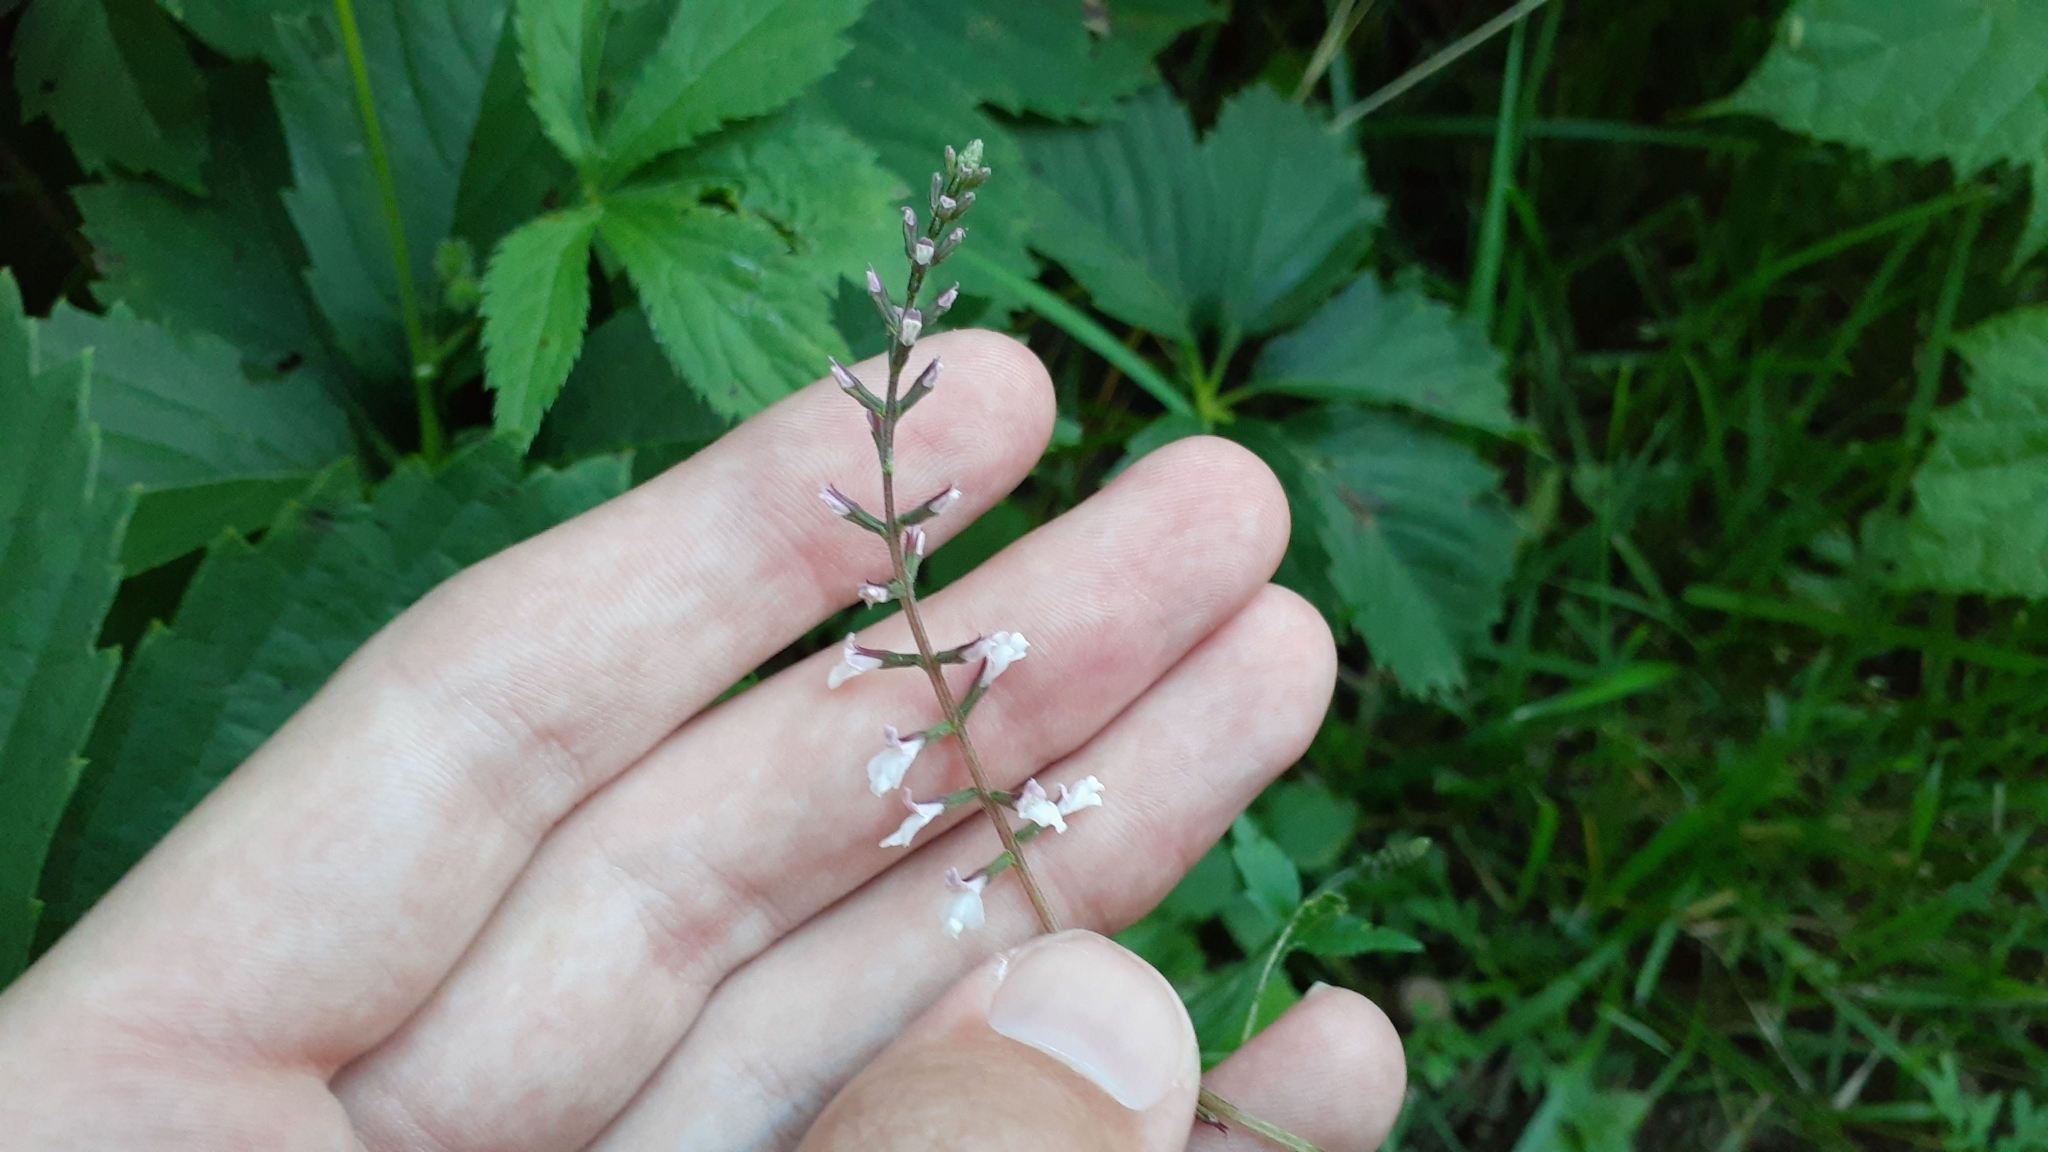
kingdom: Plantae
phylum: Tracheophyta
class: Magnoliopsida
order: Lamiales
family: Phrymaceae
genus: Phryma
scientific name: Phryma leptostachya
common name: American lopseed
